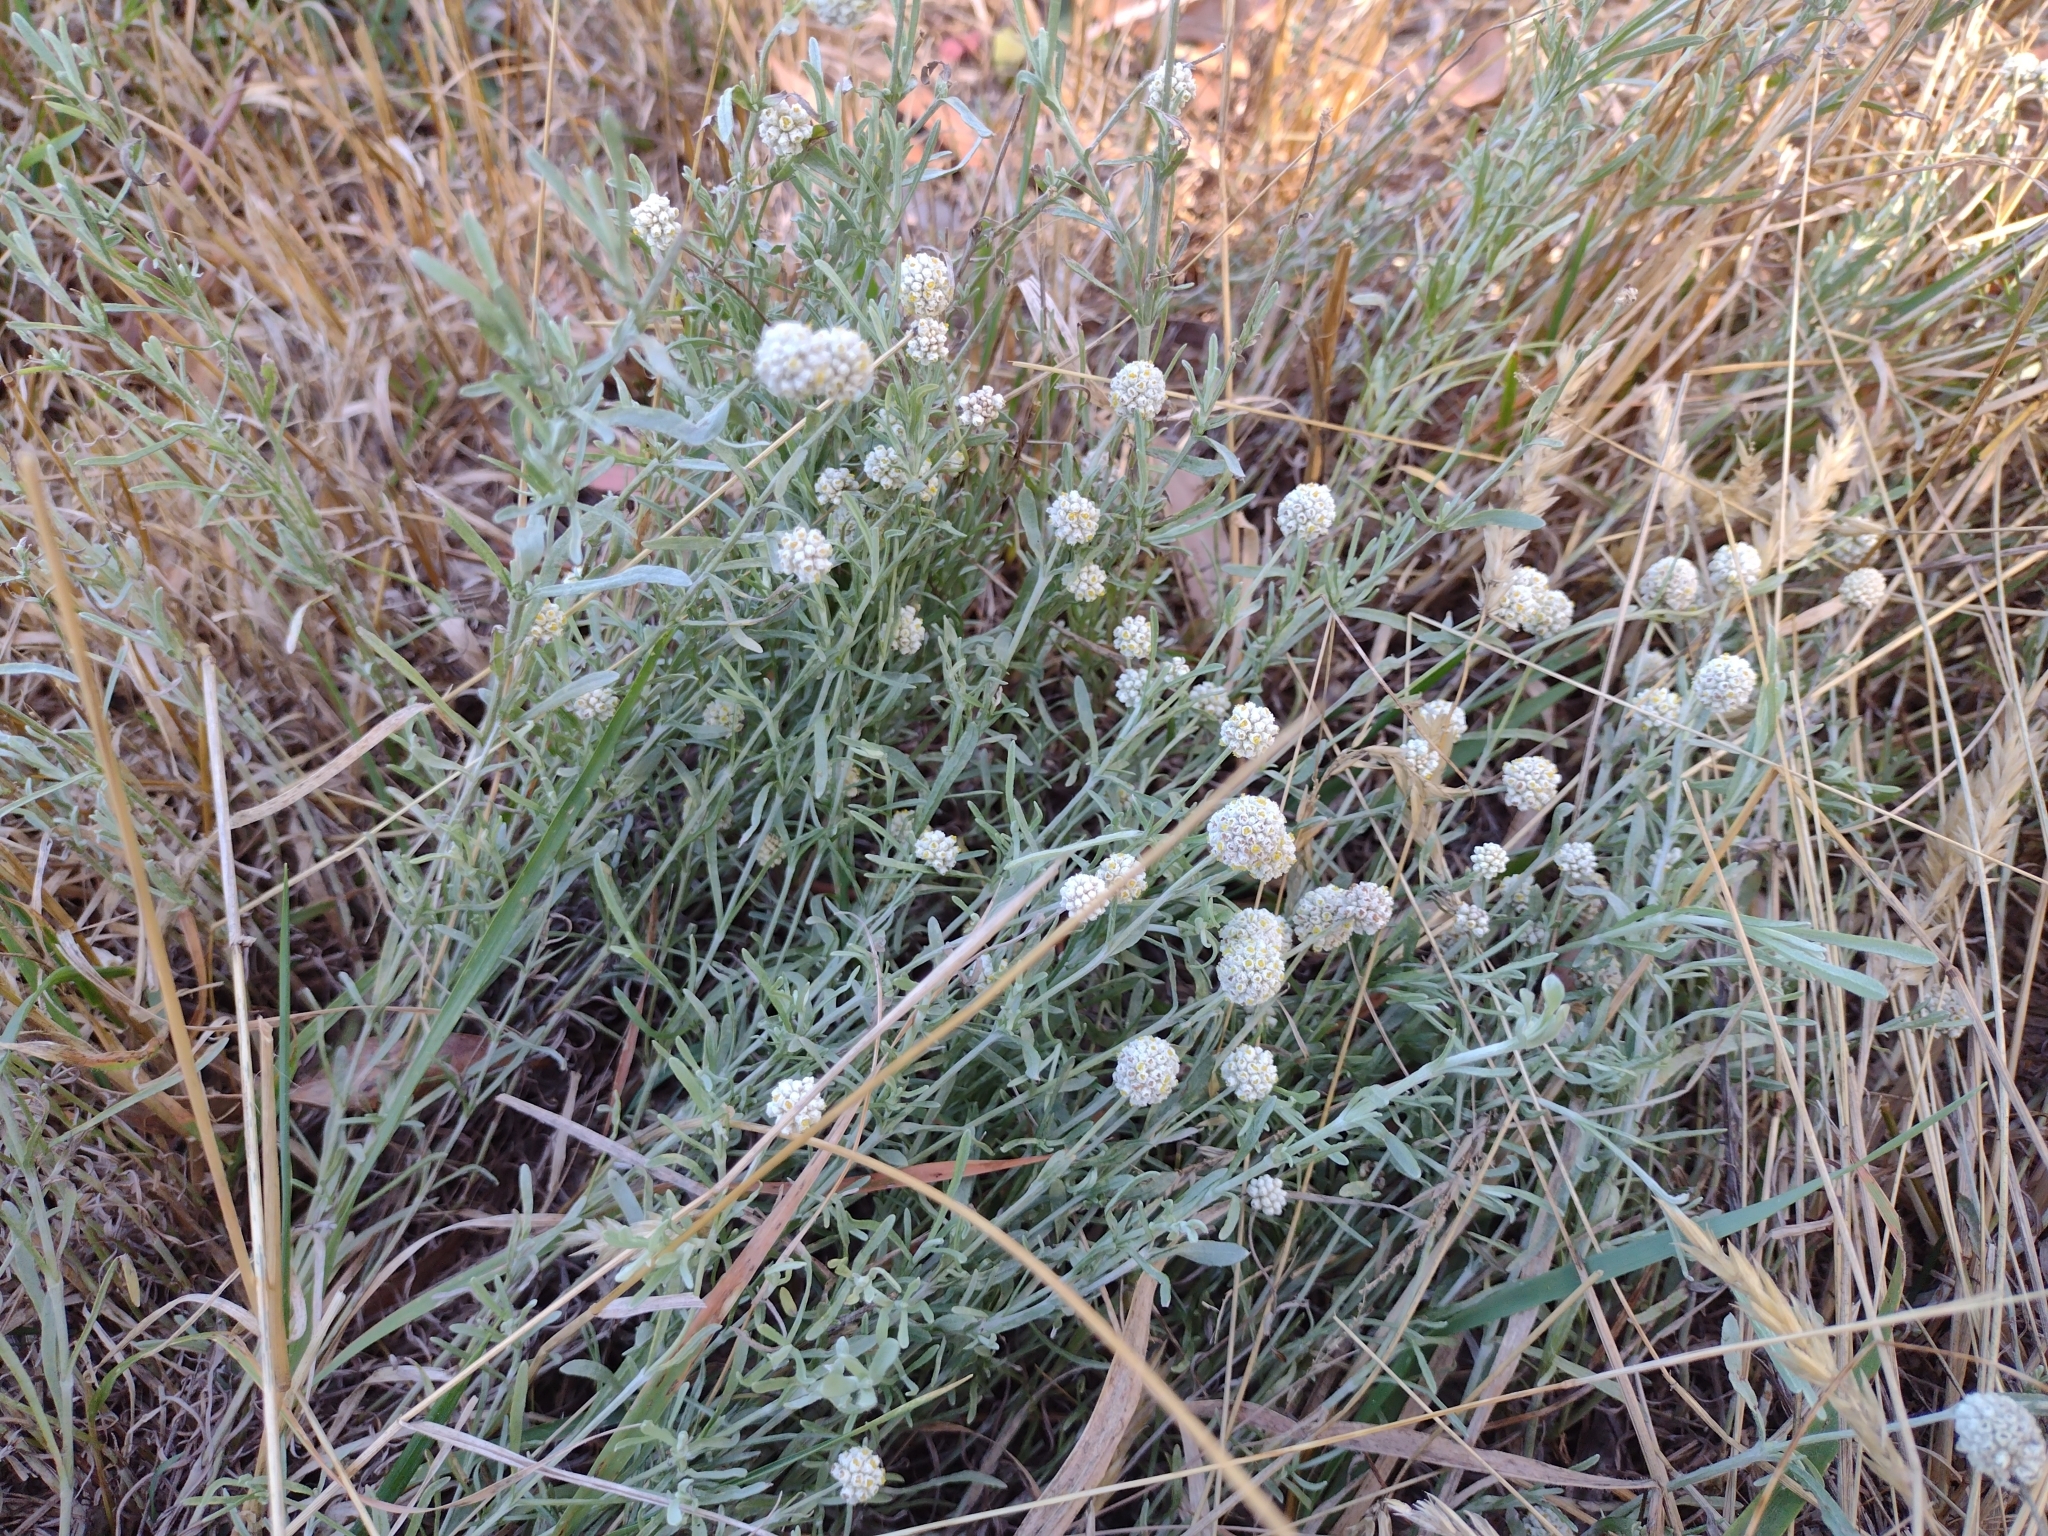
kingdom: Plantae
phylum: Tracheophyta
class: Magnoliopsida
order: Asterales
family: Asteraceae
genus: Calocephalus
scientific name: Calocephalus lacteus
